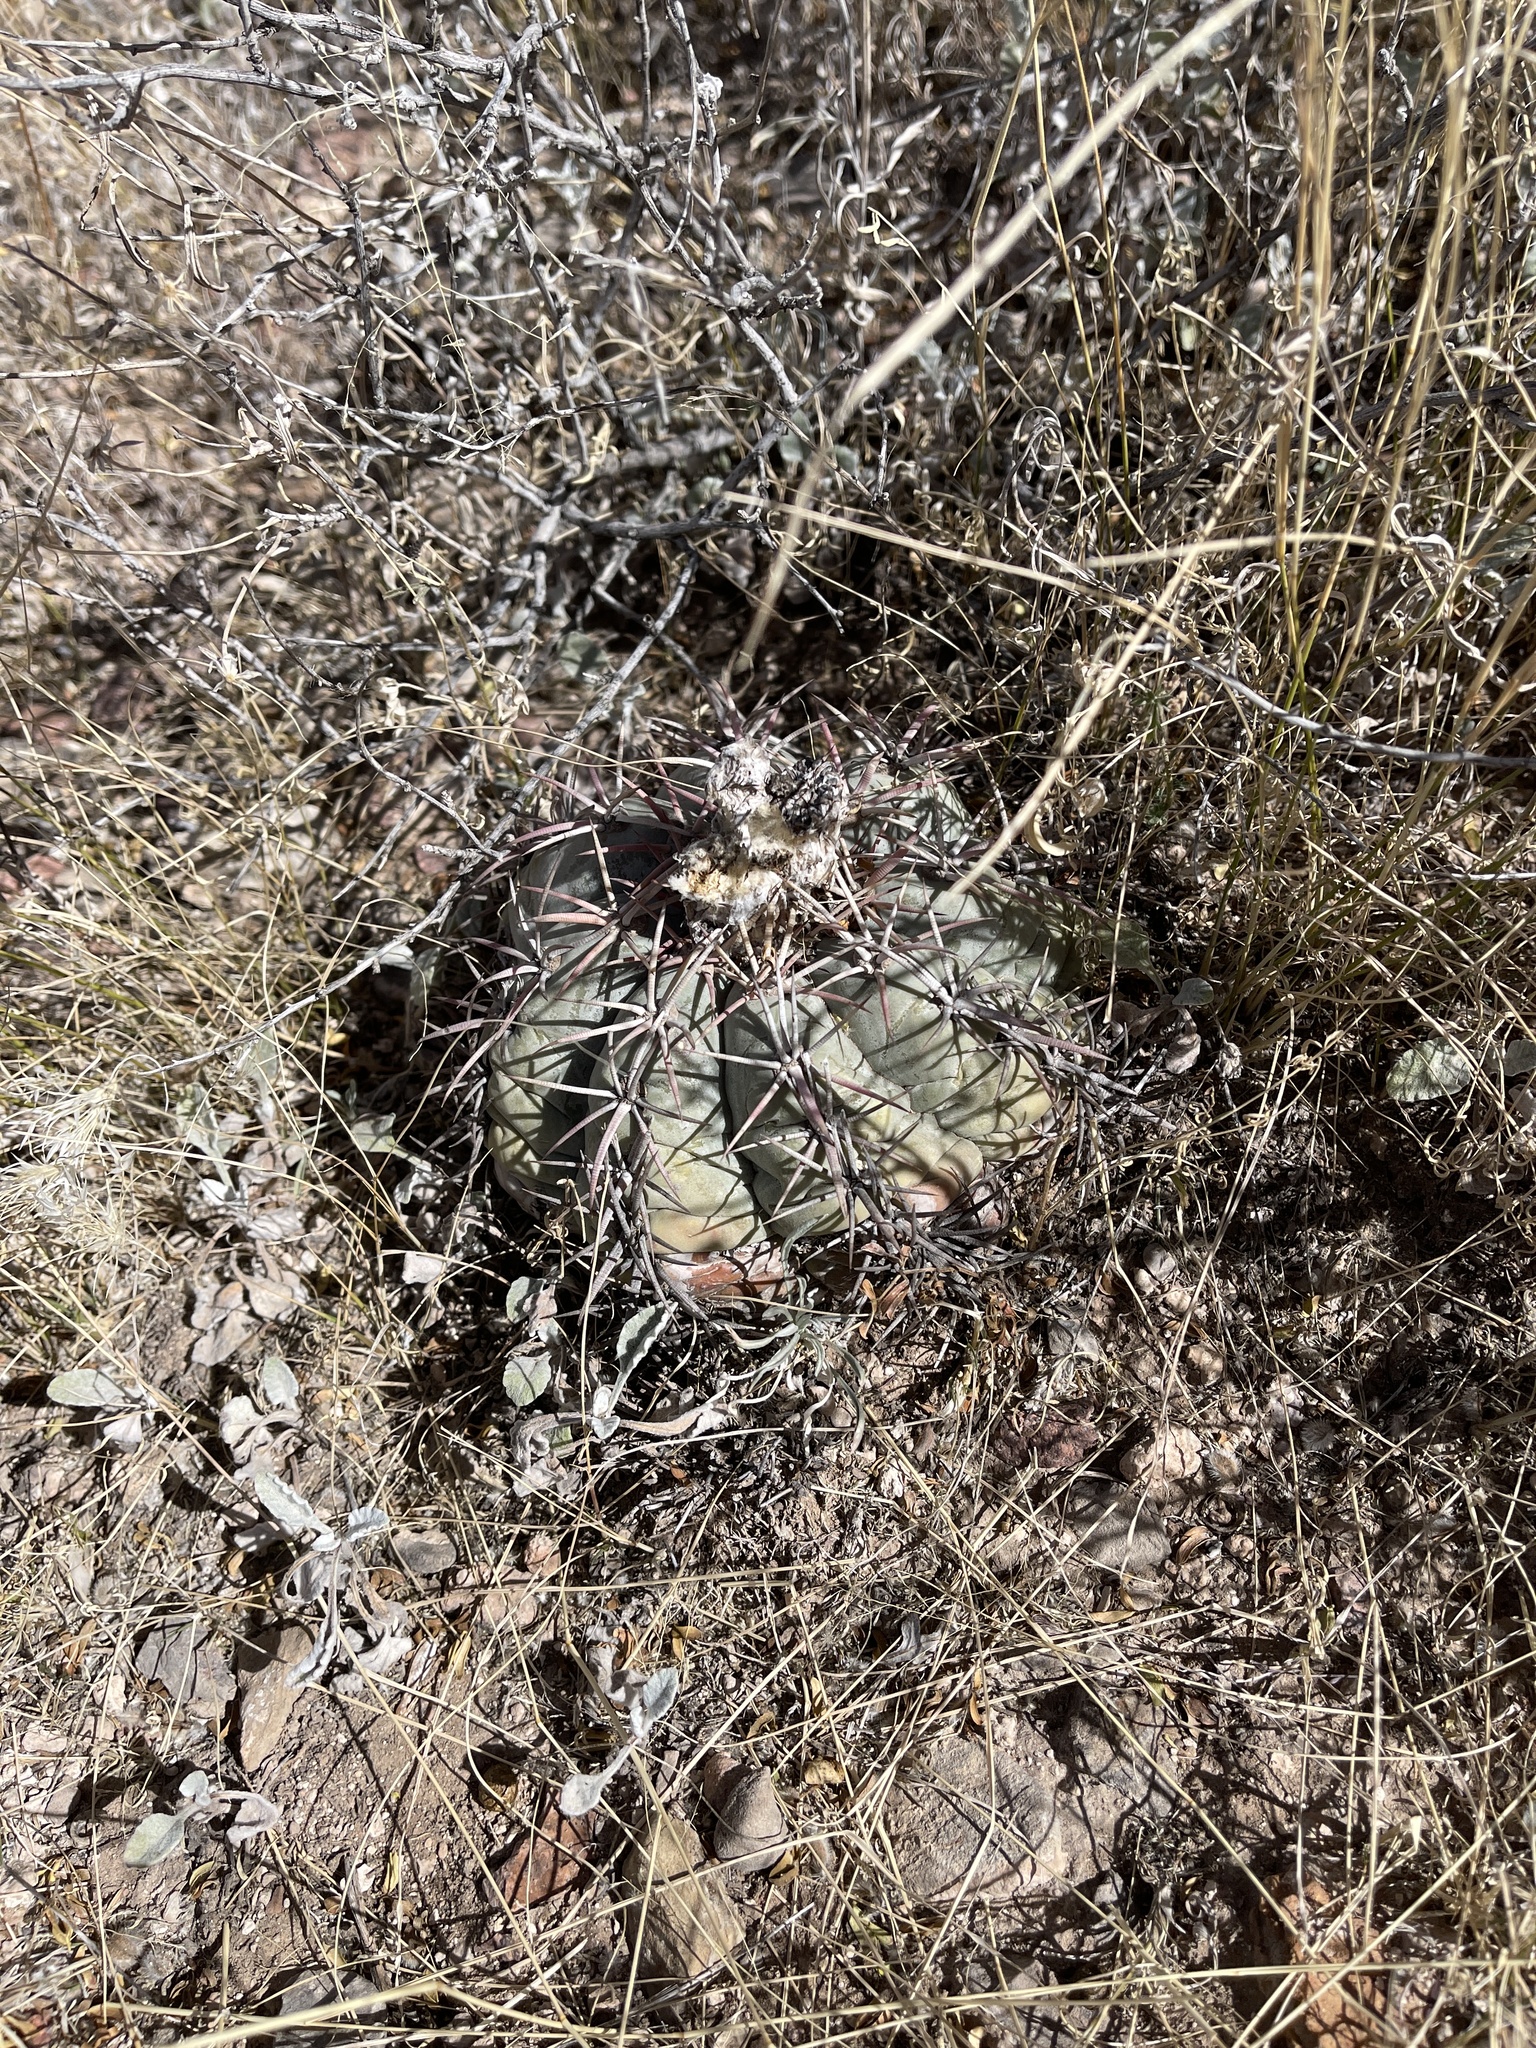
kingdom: Plantae
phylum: Tracheophyta
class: Magnoliopsida
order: Caryophyllales
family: Cactaceae
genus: Echinocactus
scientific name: Echinocactus horizonthalonius
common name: Devilshead
